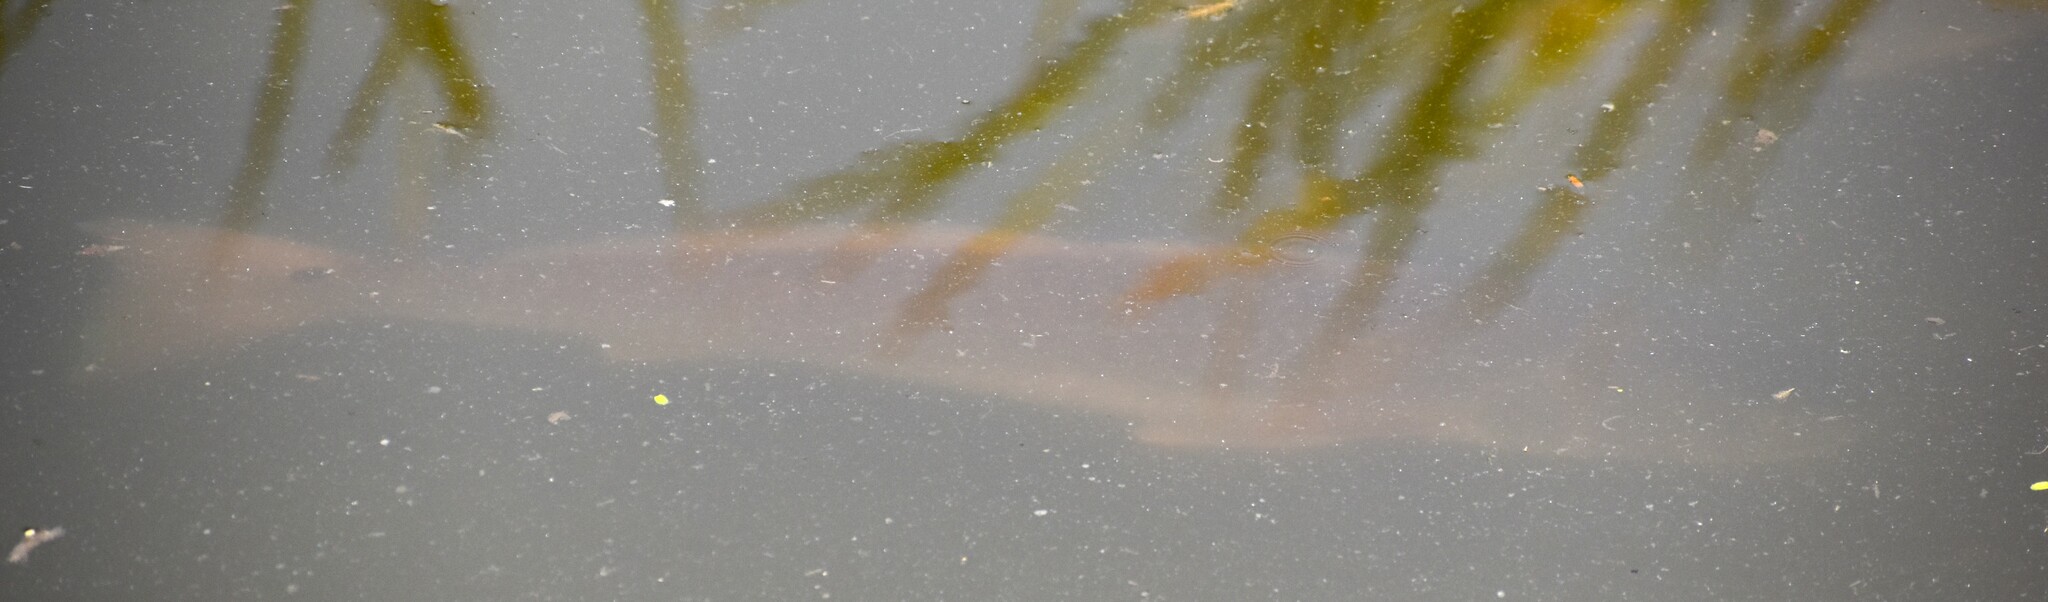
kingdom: Animalia
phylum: Chordata
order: Perciformes
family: Sciaenidae
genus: Sciaenops
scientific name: Sciaenops ocellatus
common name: Red drum
